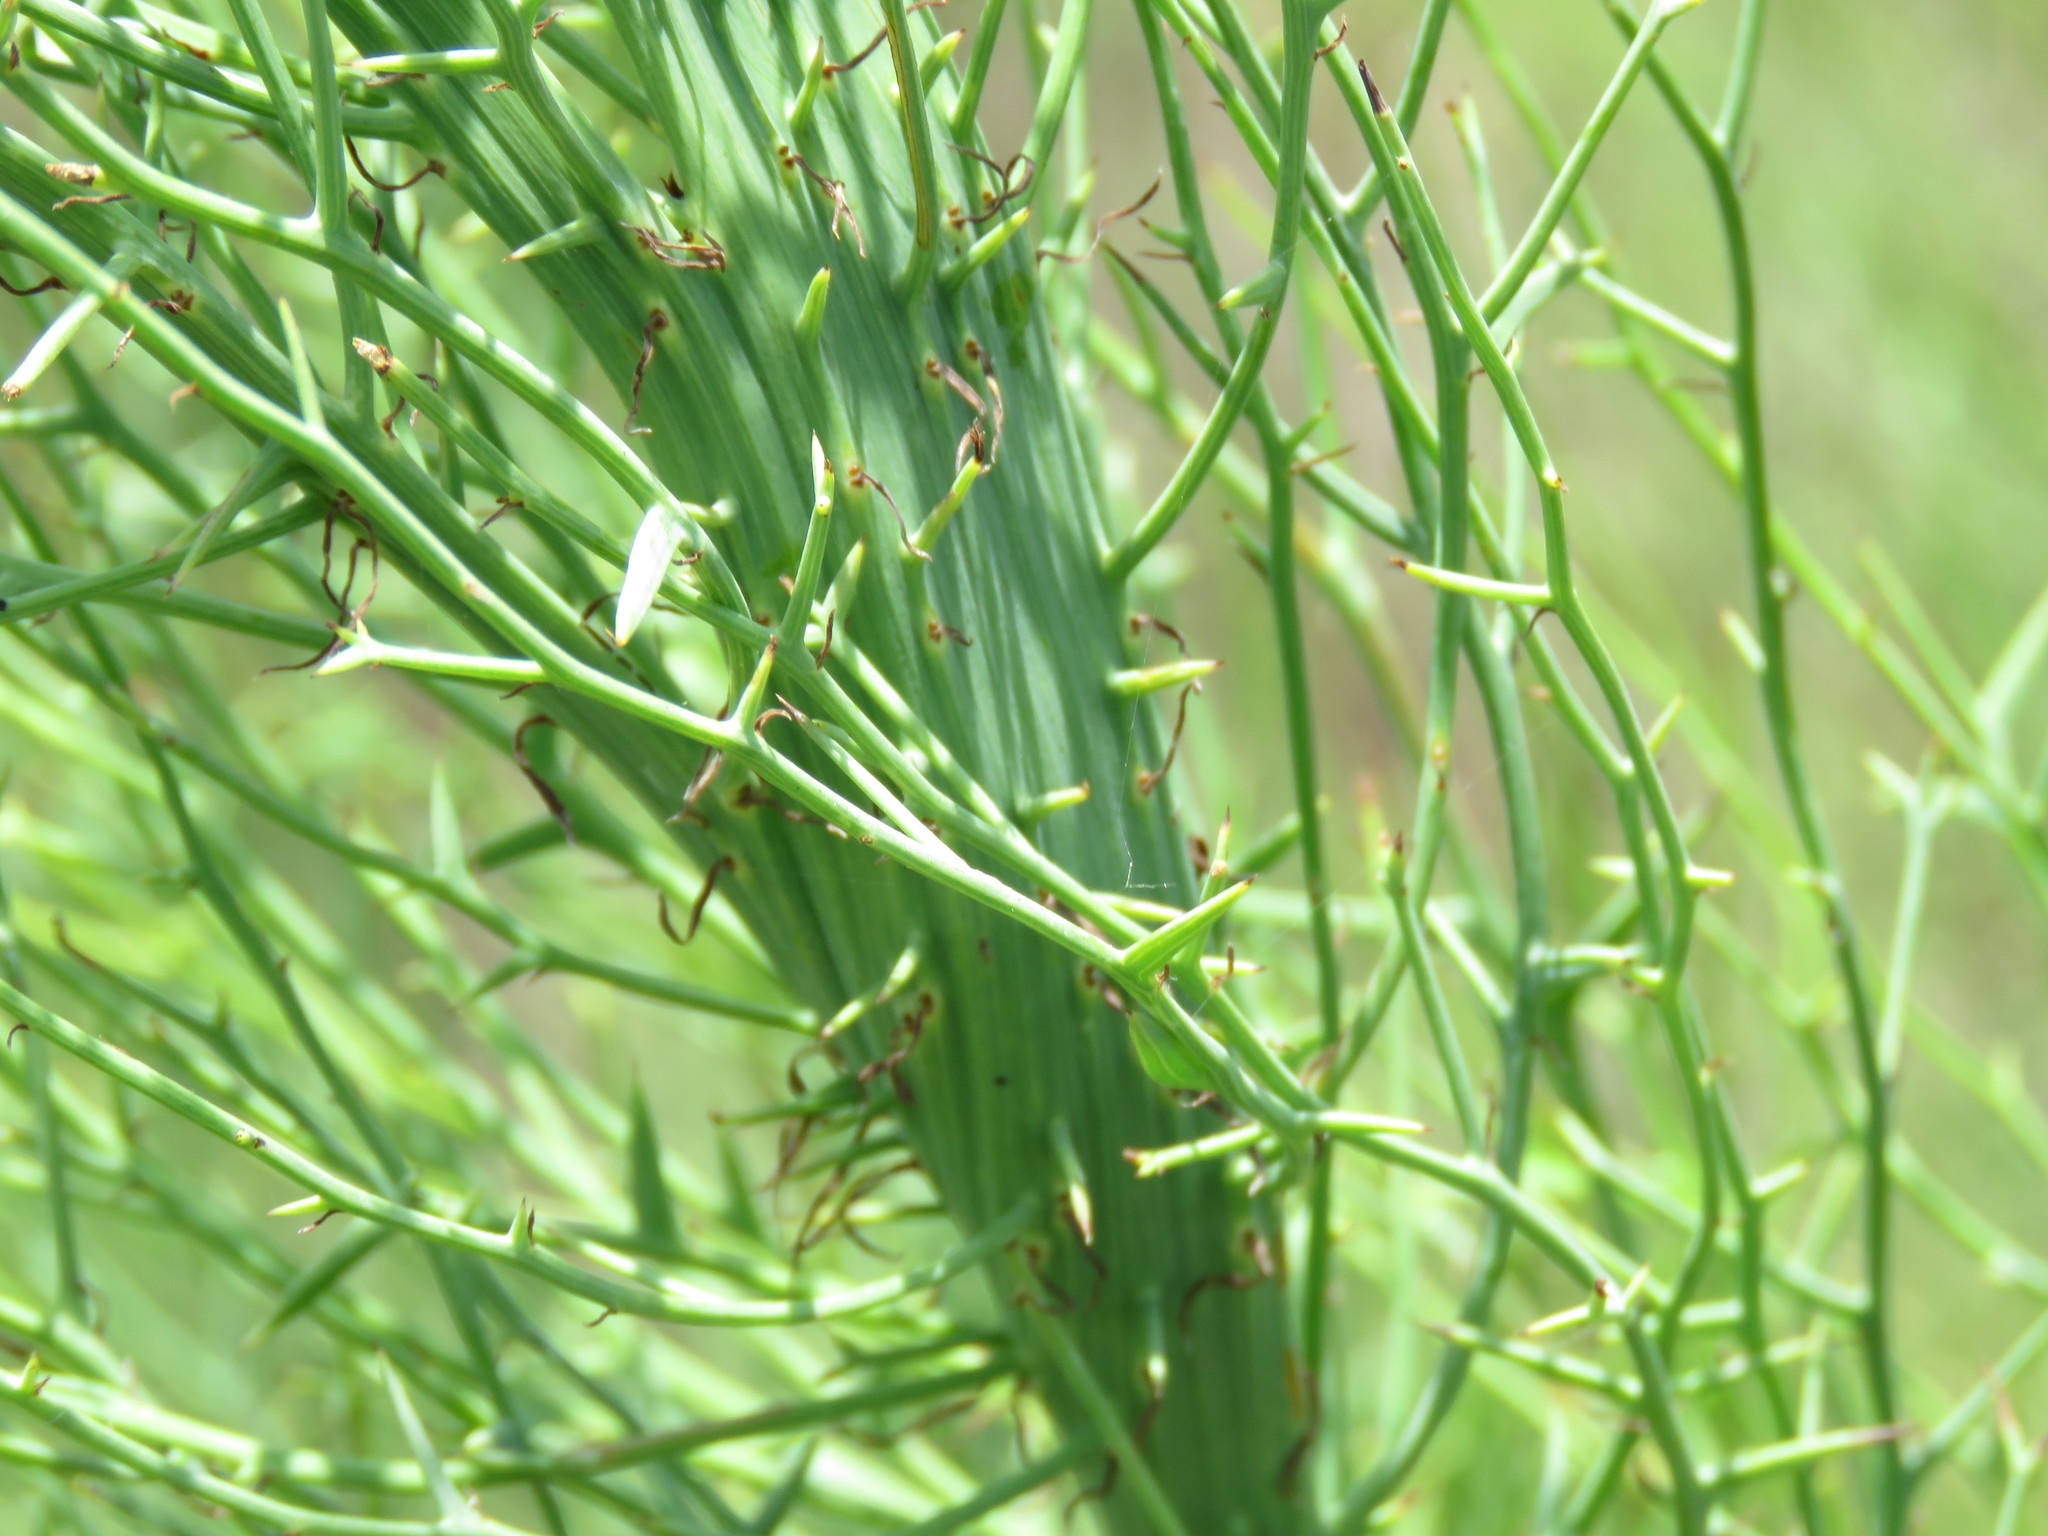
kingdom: Plantae
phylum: Tracheophyta
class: Magnoliopsida
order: Asterales
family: Asteraceae
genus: Chloracantha
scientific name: Chloracantha spinosa
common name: Mexican devilweed
